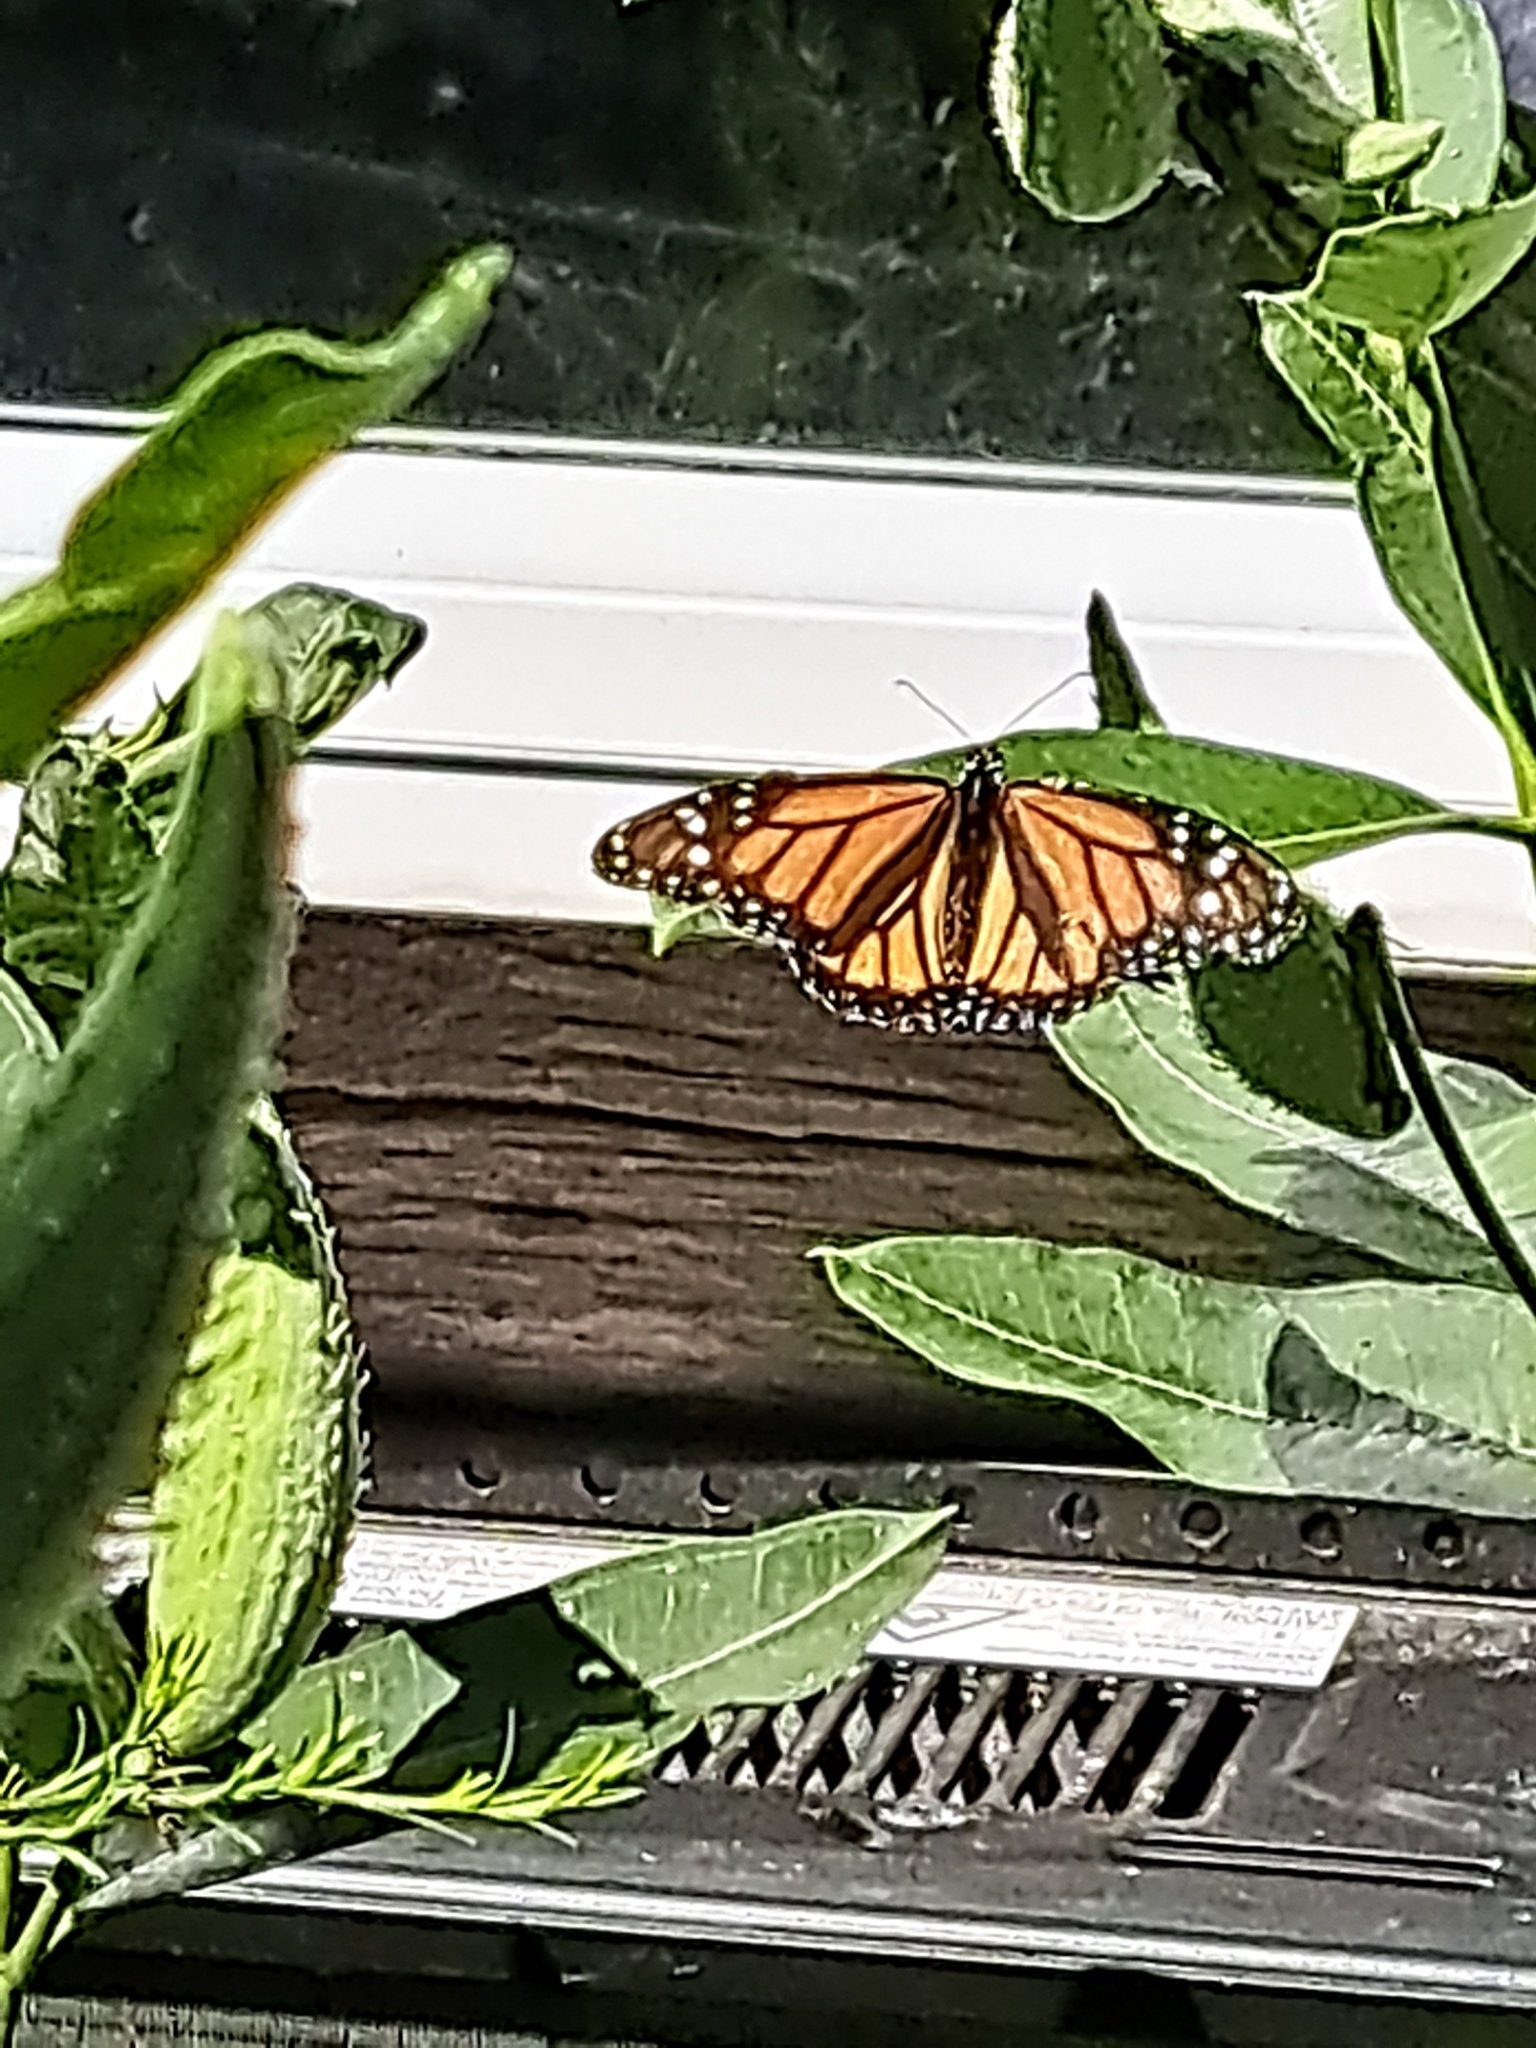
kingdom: Animalia
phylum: Arthropoda
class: Insecta
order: Lepidoptera
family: Nymphalidae
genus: Danaus
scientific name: Danaus plexippus
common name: Monarch
